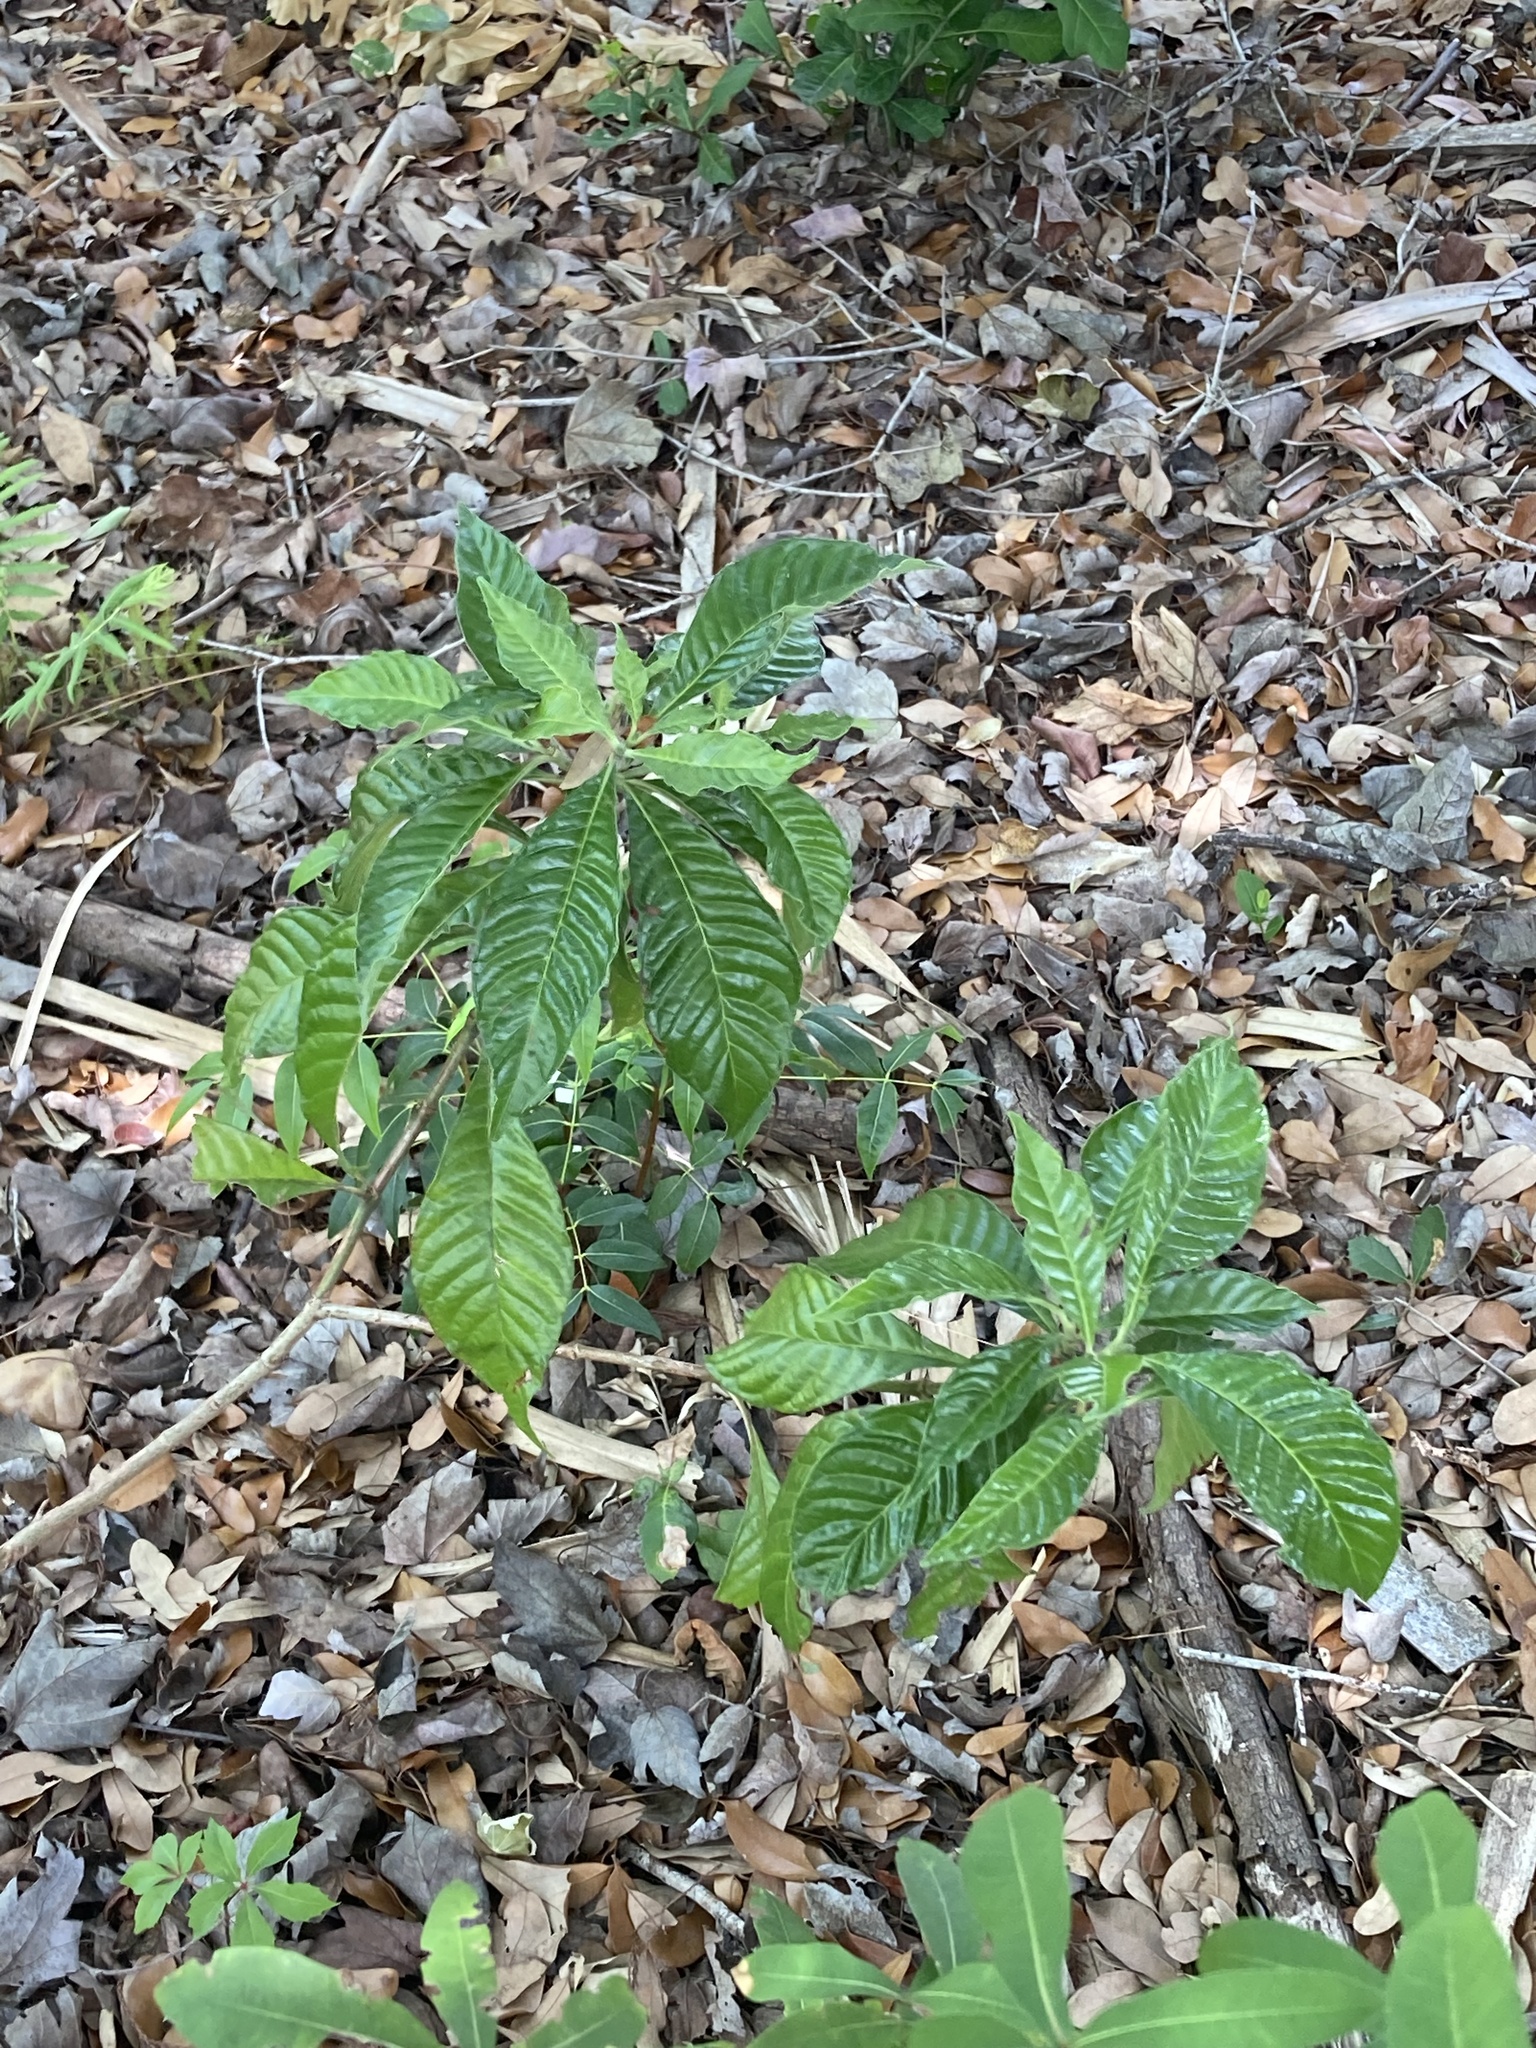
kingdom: Plantae
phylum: Tracheophyta
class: Magnoliopsida
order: Gentianales
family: Rubiaceae
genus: Psychotria
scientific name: Psychotria nervosa
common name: Bastard cankerberry
